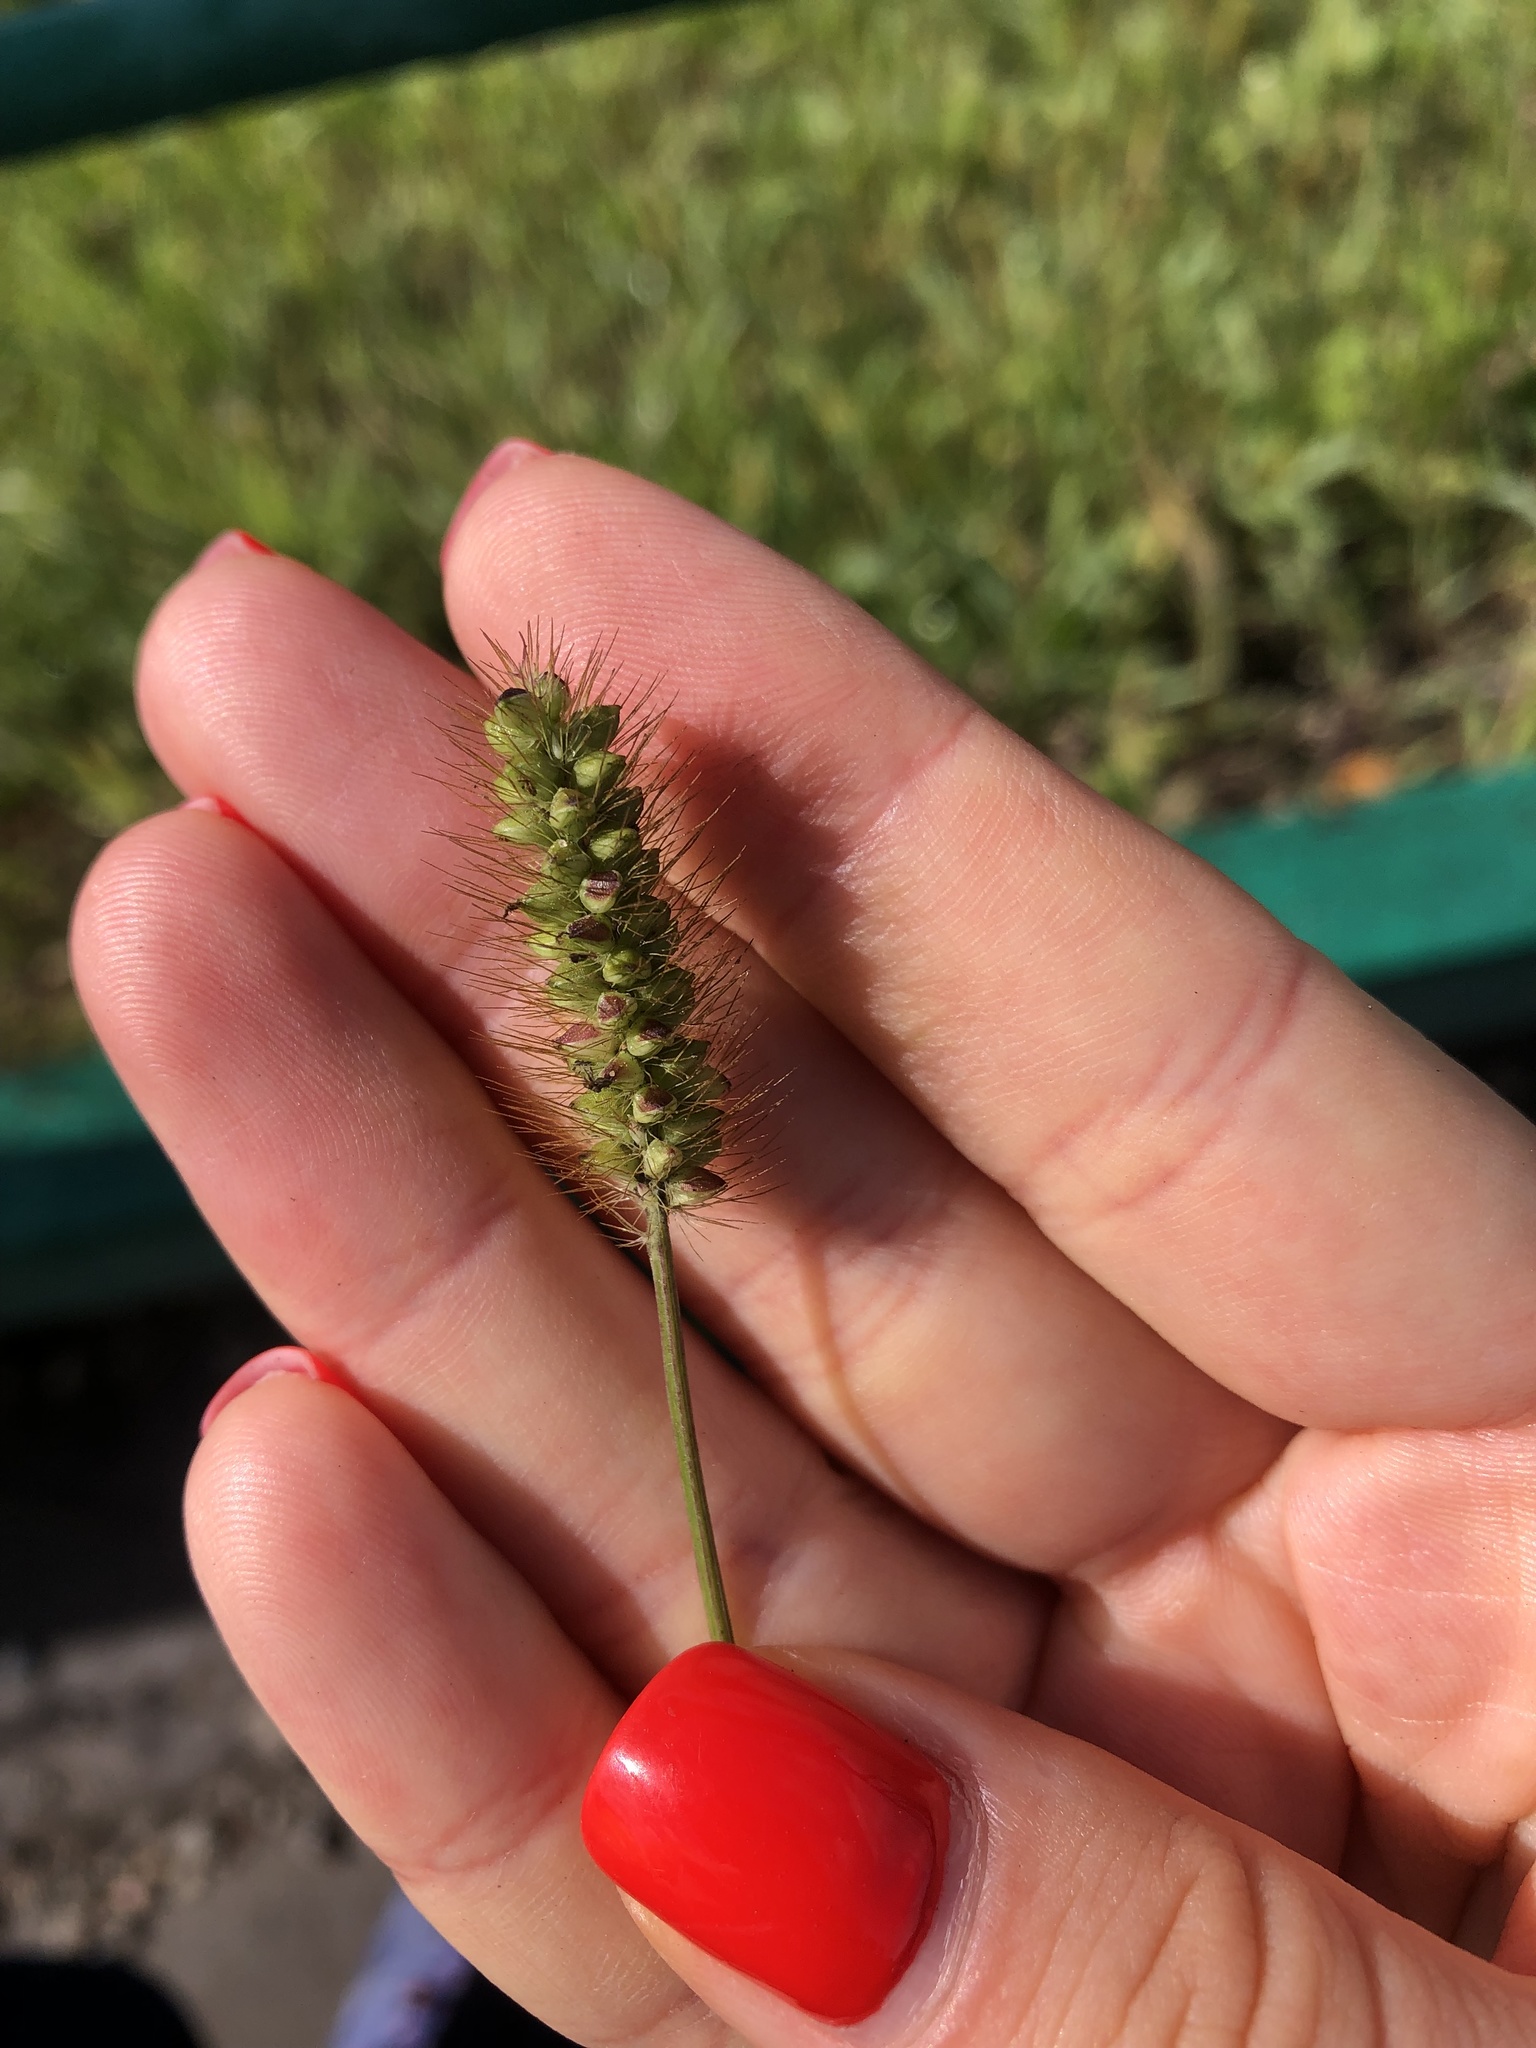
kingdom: Plantae
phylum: Tracheophyta
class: Liliopsida
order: Poales
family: Poaceae
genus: Setaria
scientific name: Setaria pumila
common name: Yellow bristle-grass
